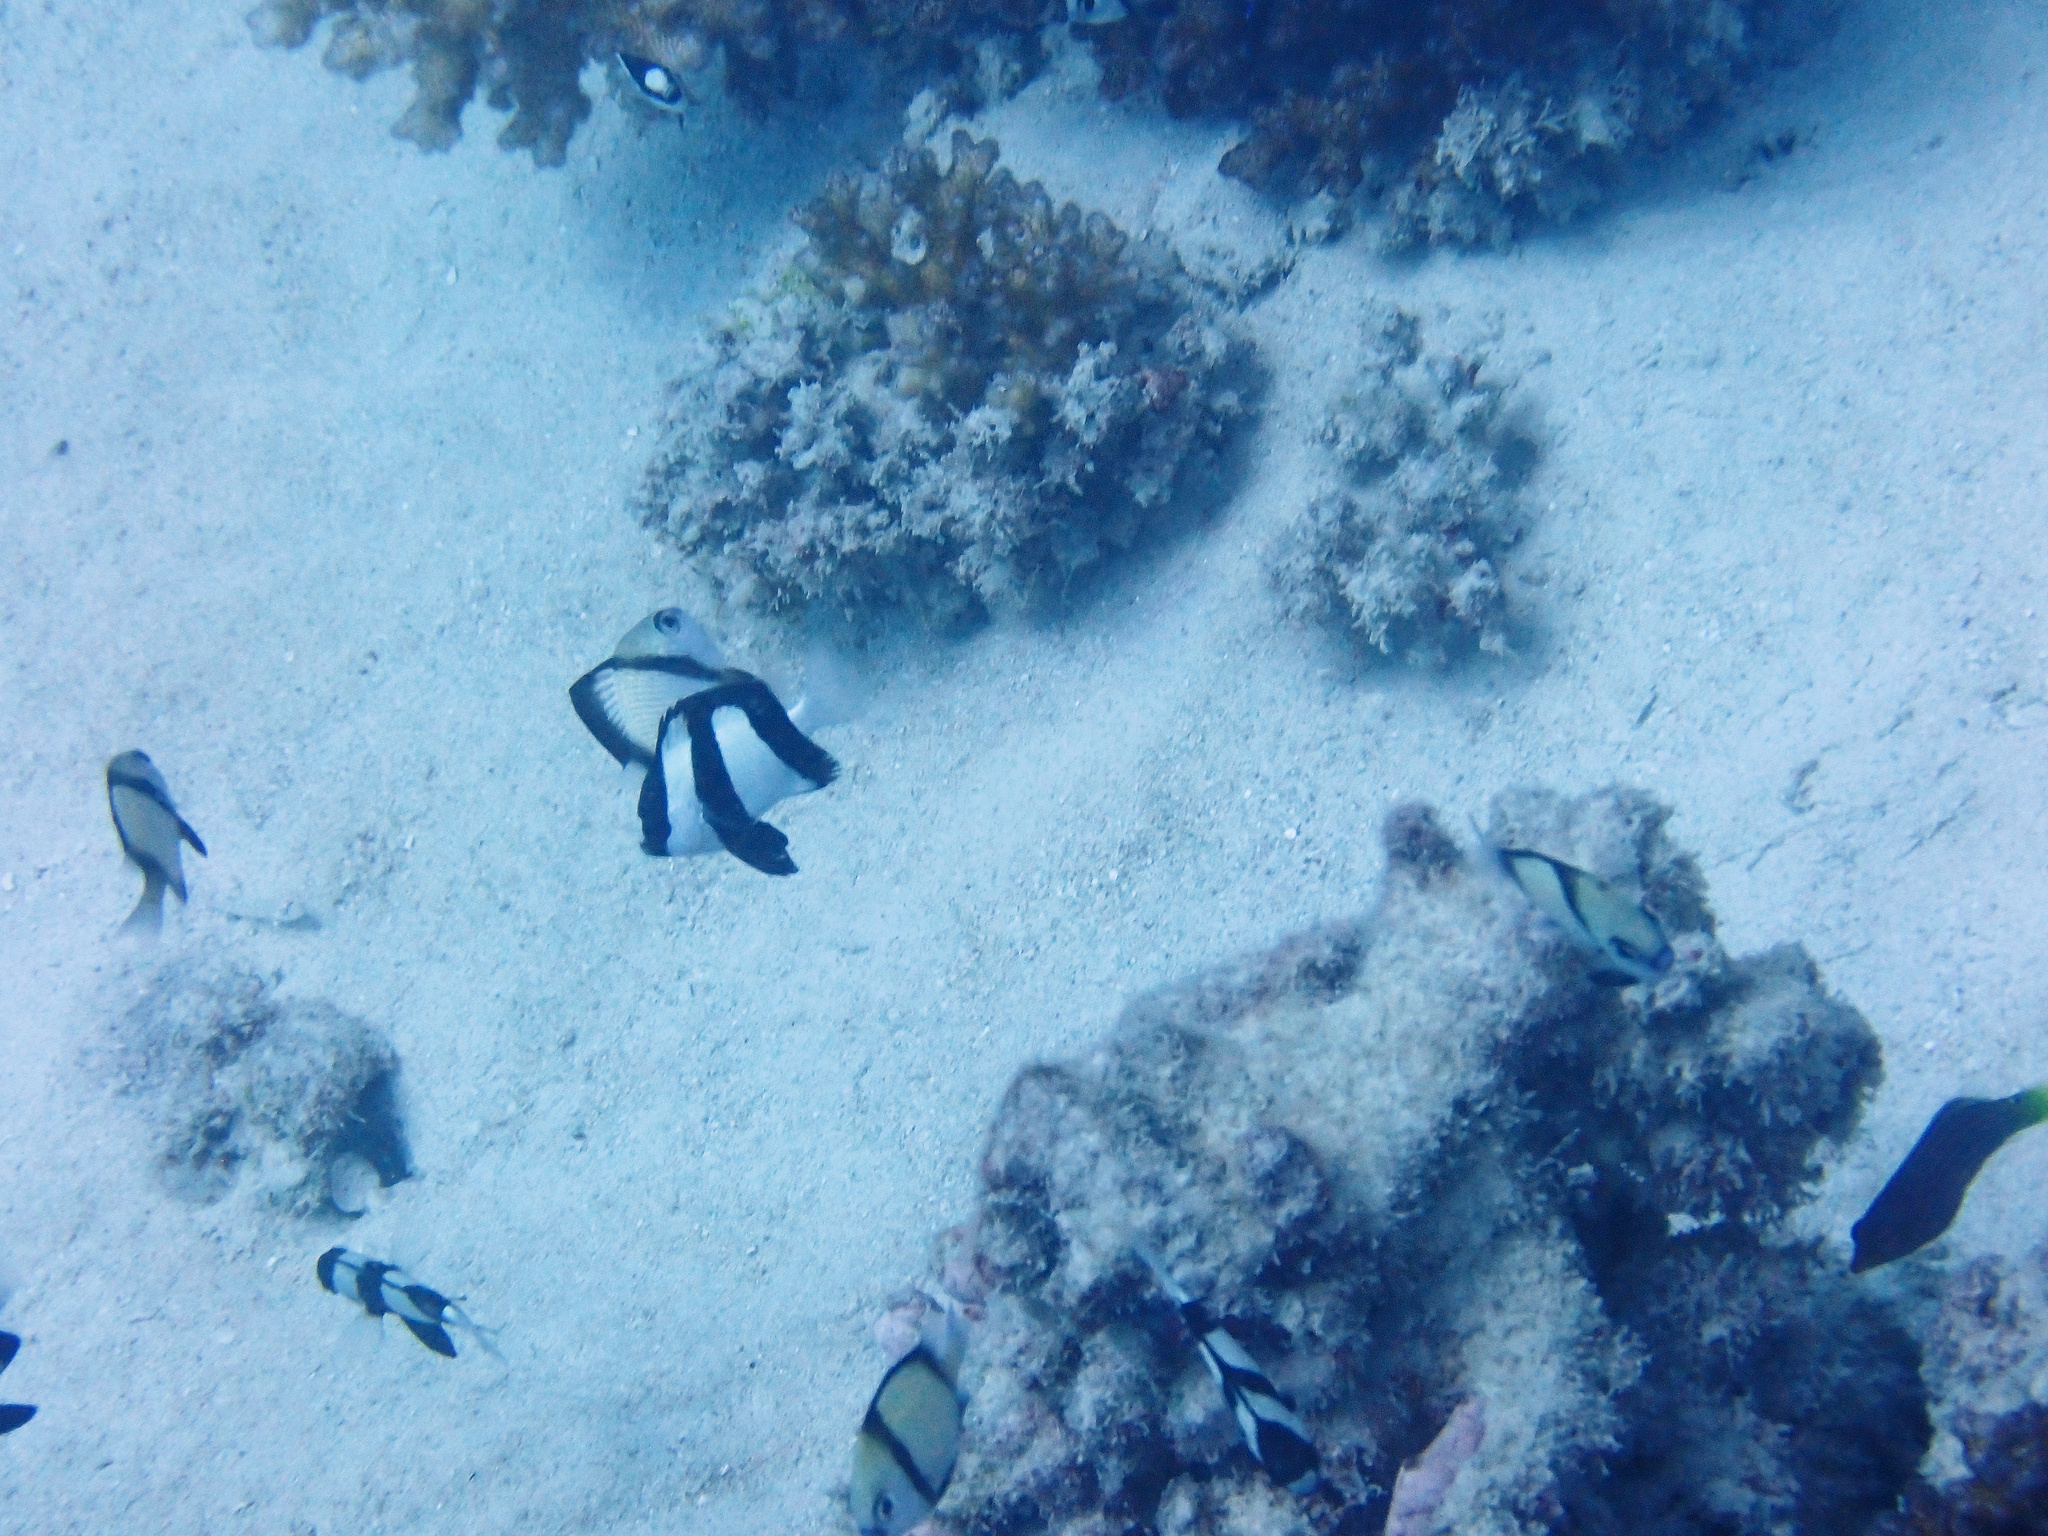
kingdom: Animalia
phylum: Chordata
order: Perciformes
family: Pomacentridae
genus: Dascyllus
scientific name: Dascyllus aruanus
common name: Humbug dascyllus
